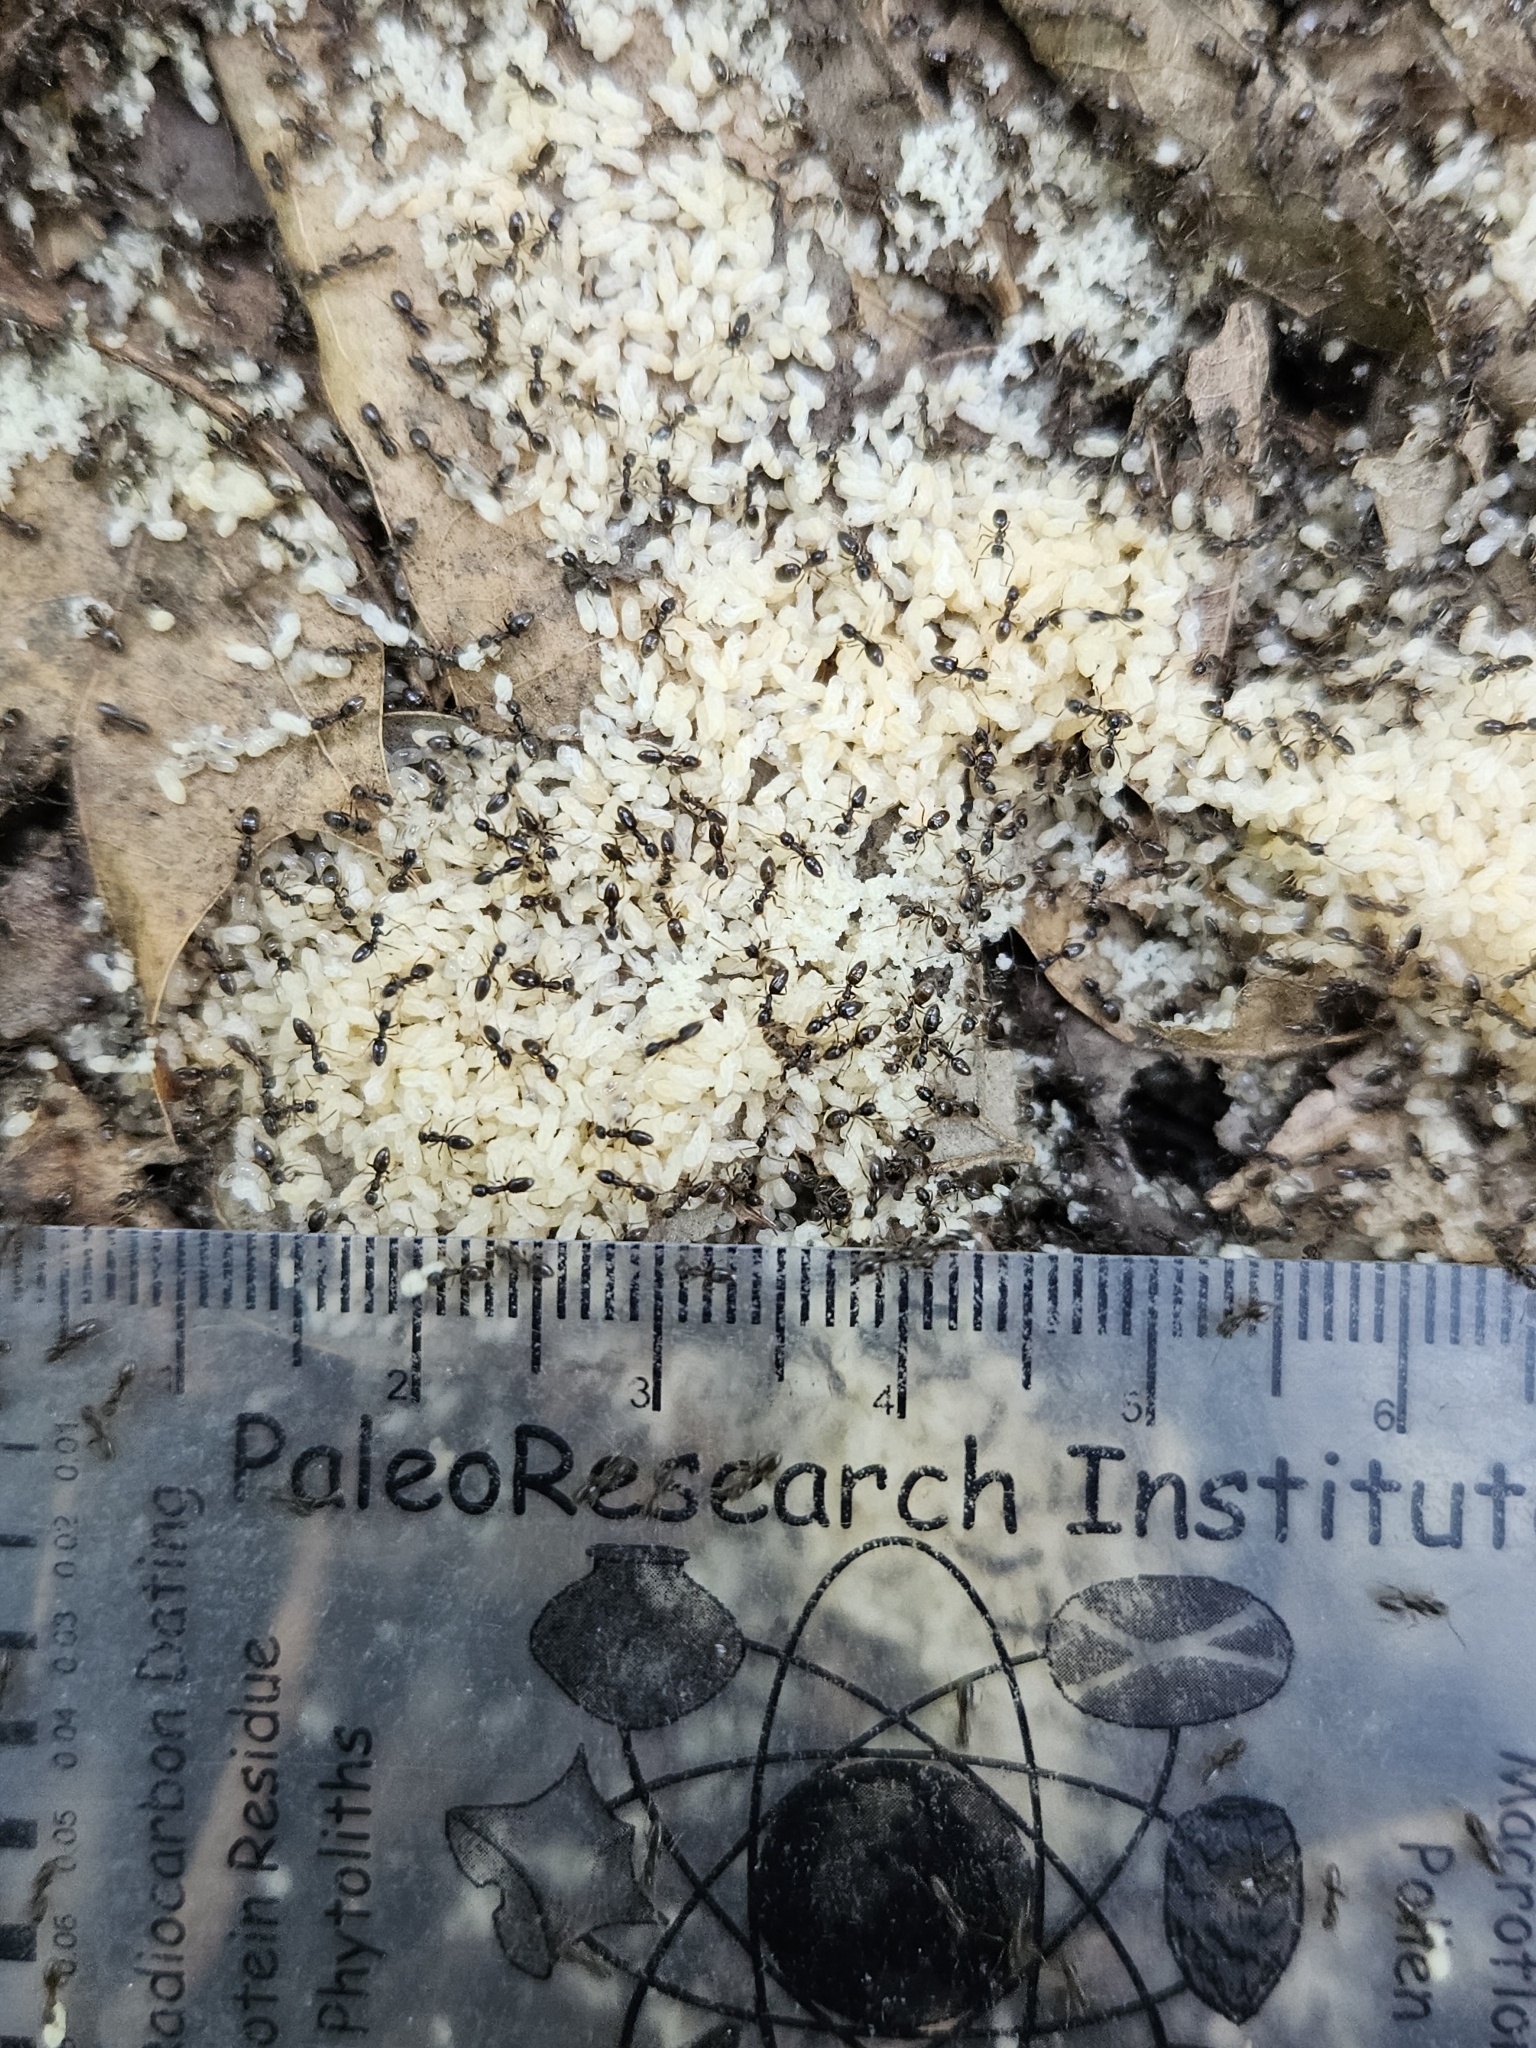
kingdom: Animalia
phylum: Arthropoda
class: Insecta
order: Hymenoptera
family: Formicidae
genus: Tapinoma
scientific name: Tapinoma sessile
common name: Odorous house ant
